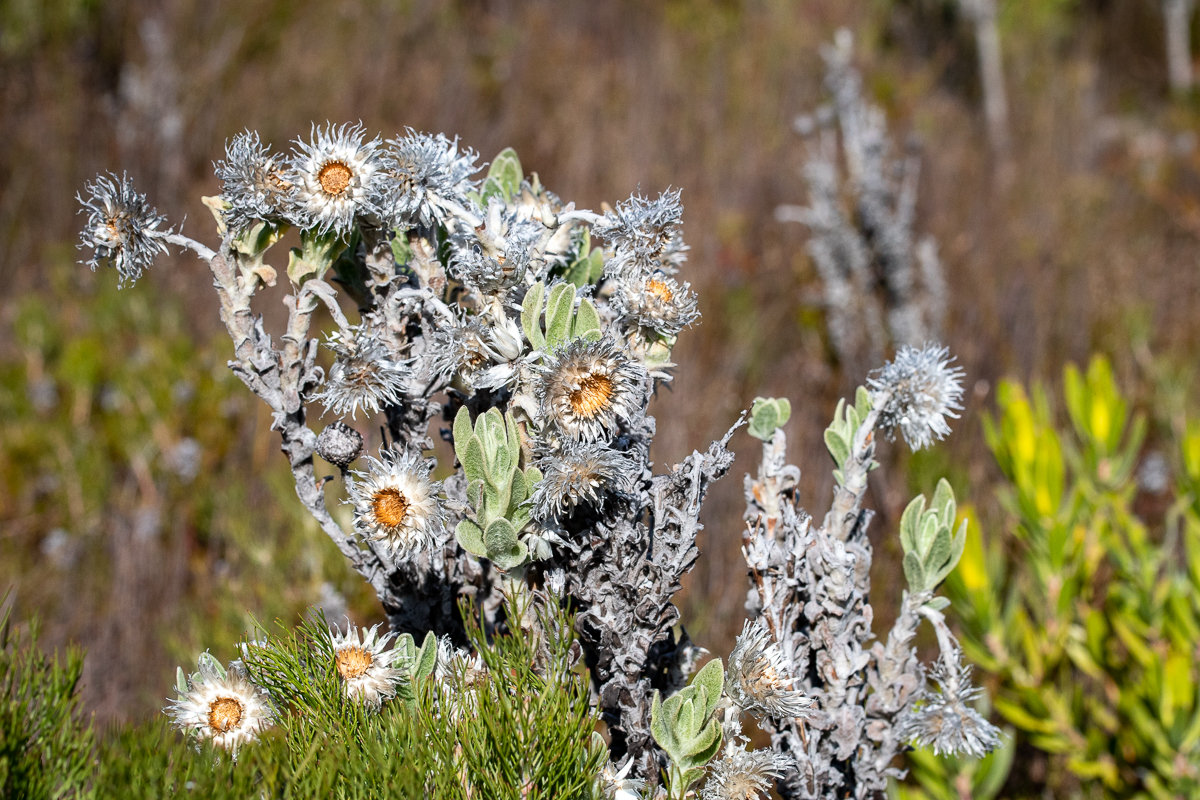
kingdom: Plantae
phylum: Tracheophyta
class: Magnoliopsida
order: Asterales
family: Asteraceae
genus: Syncarpha
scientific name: Syncarpha vestita
